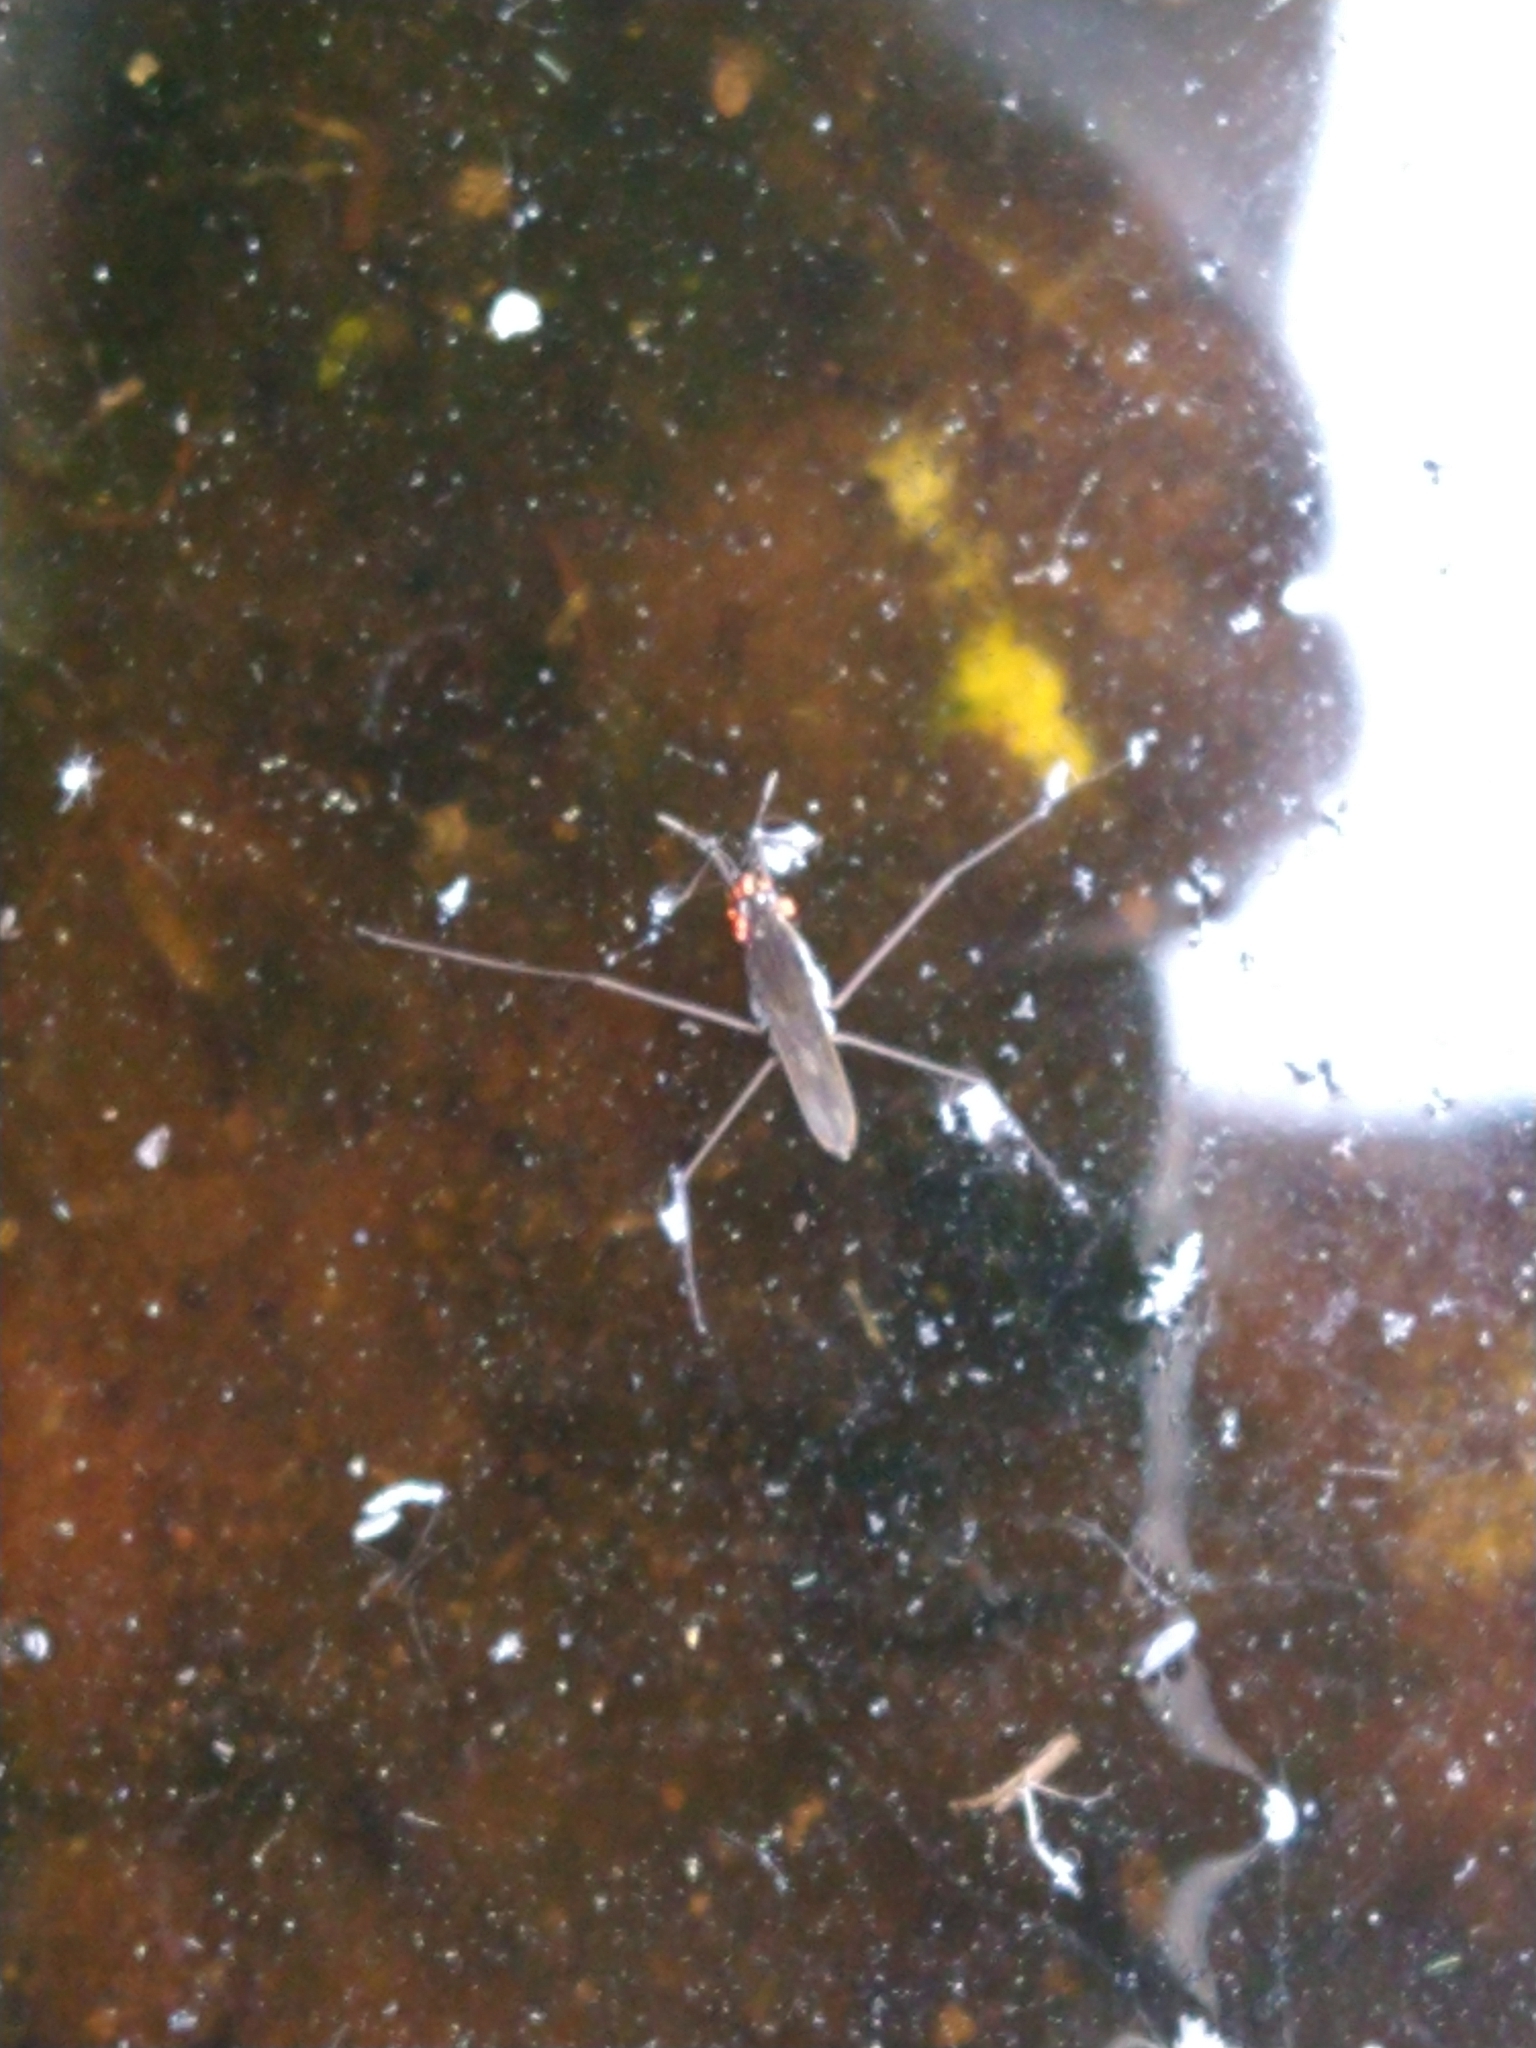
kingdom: Animalia
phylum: Arthropoda
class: Insecta
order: Hemiptera
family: Gerridae
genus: Gerris
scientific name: Gerris
